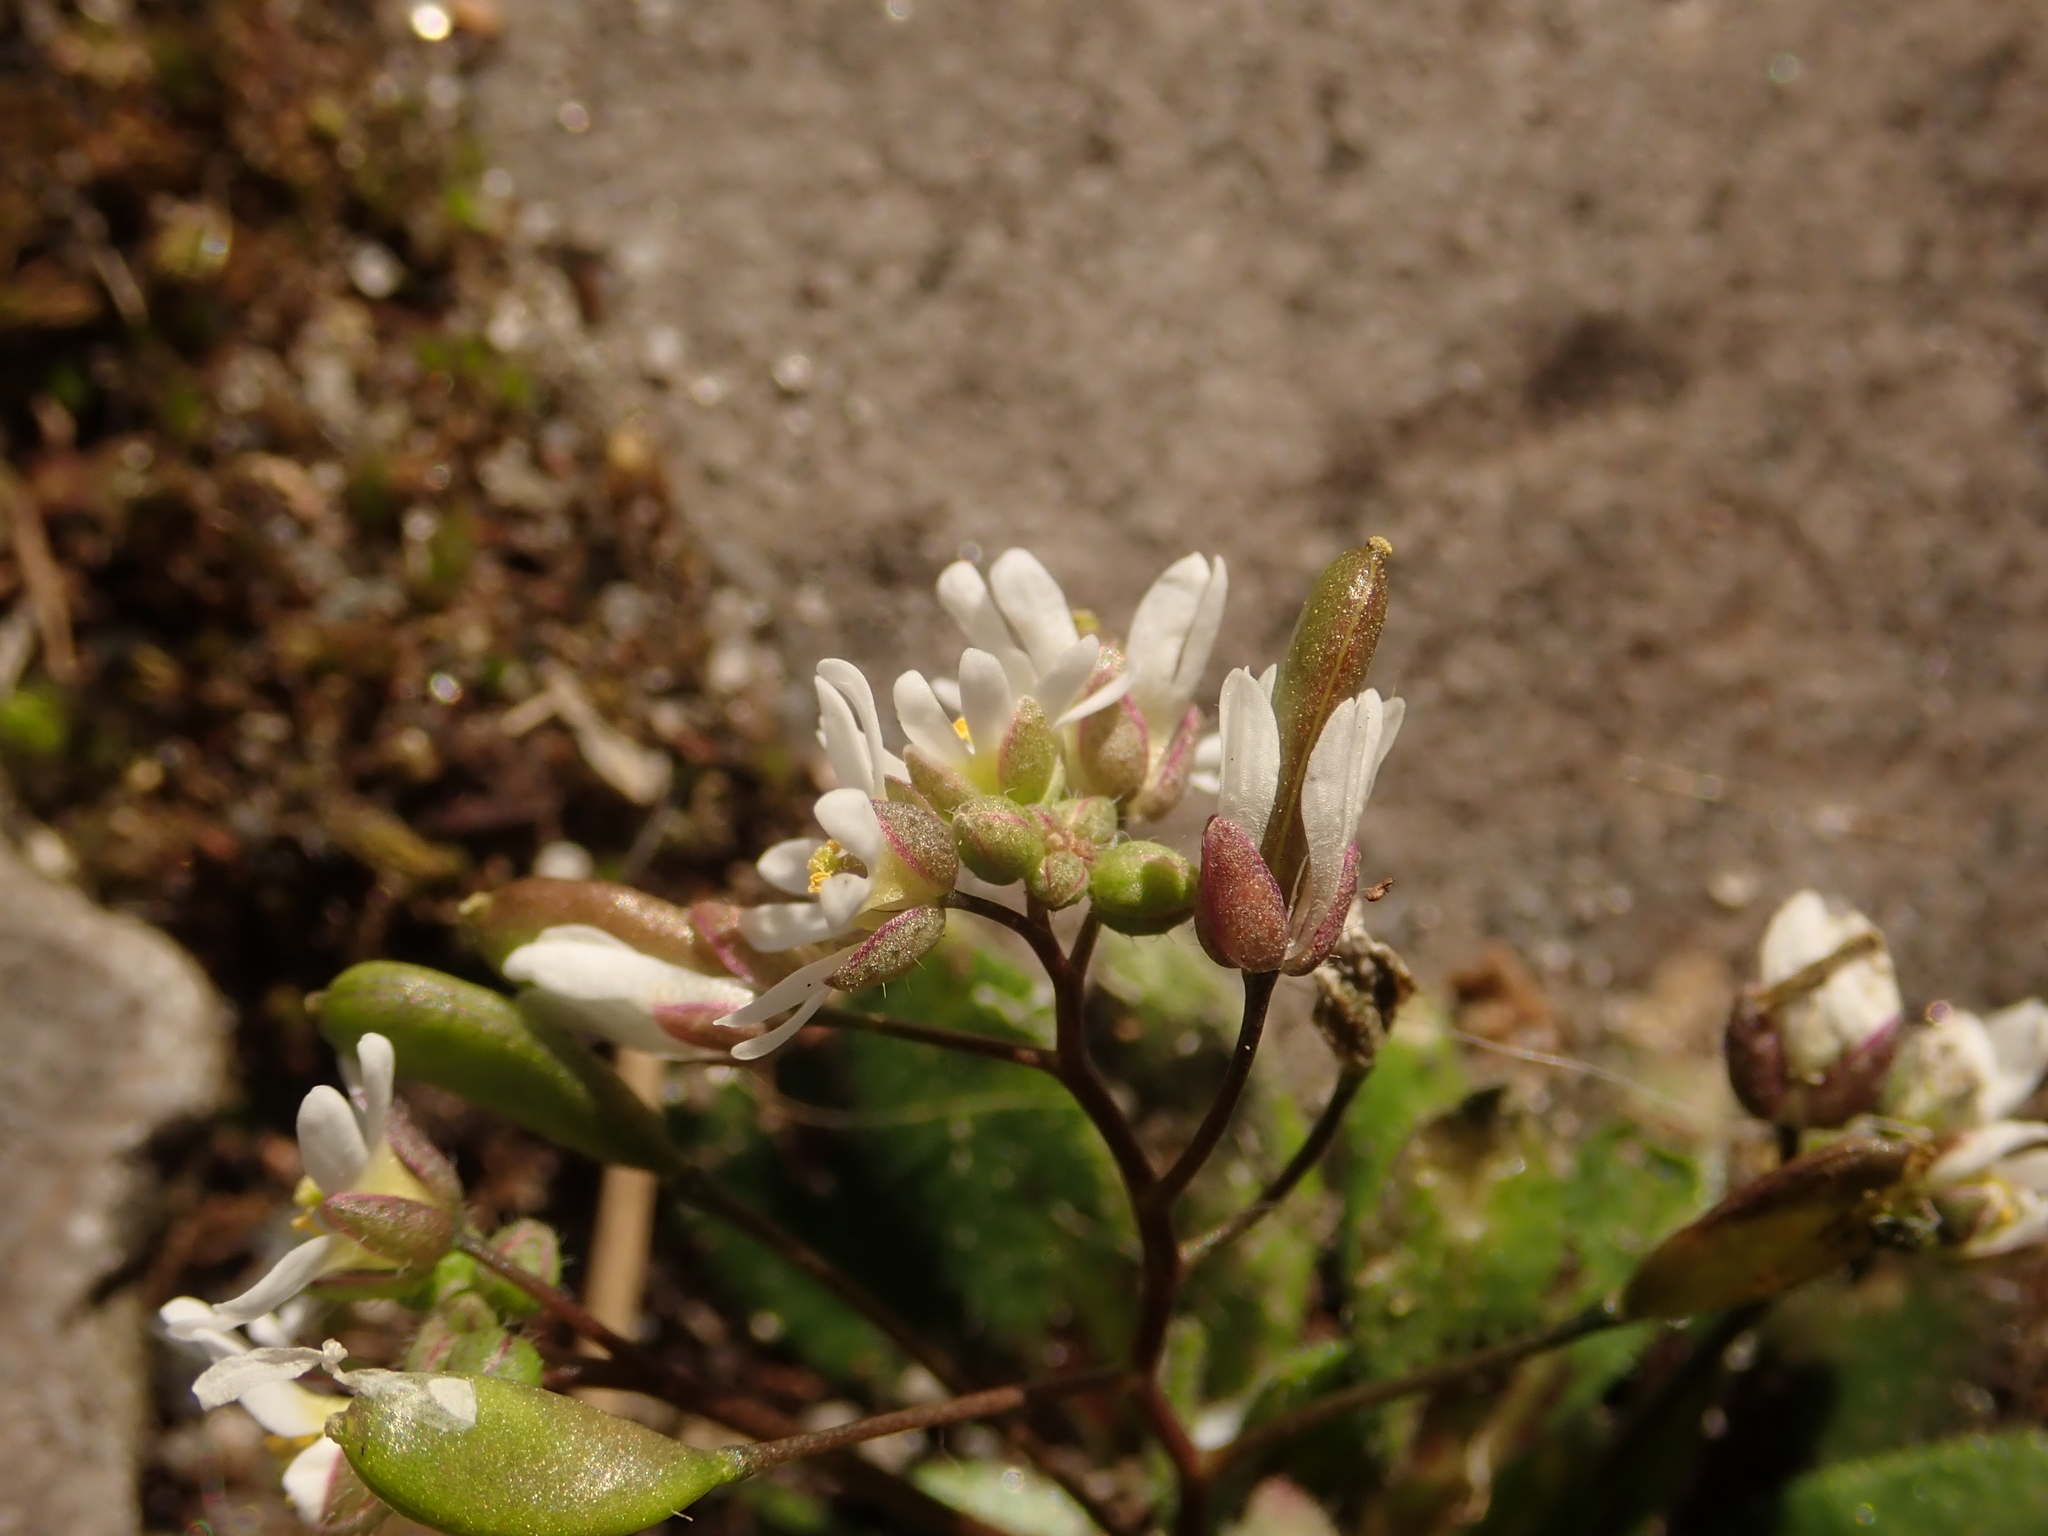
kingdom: Plantae
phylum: Tracheophyta
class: Magnoliopsida
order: Brassicales
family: Brassicaceae
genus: Draba
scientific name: Draba verna
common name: Spring draba
